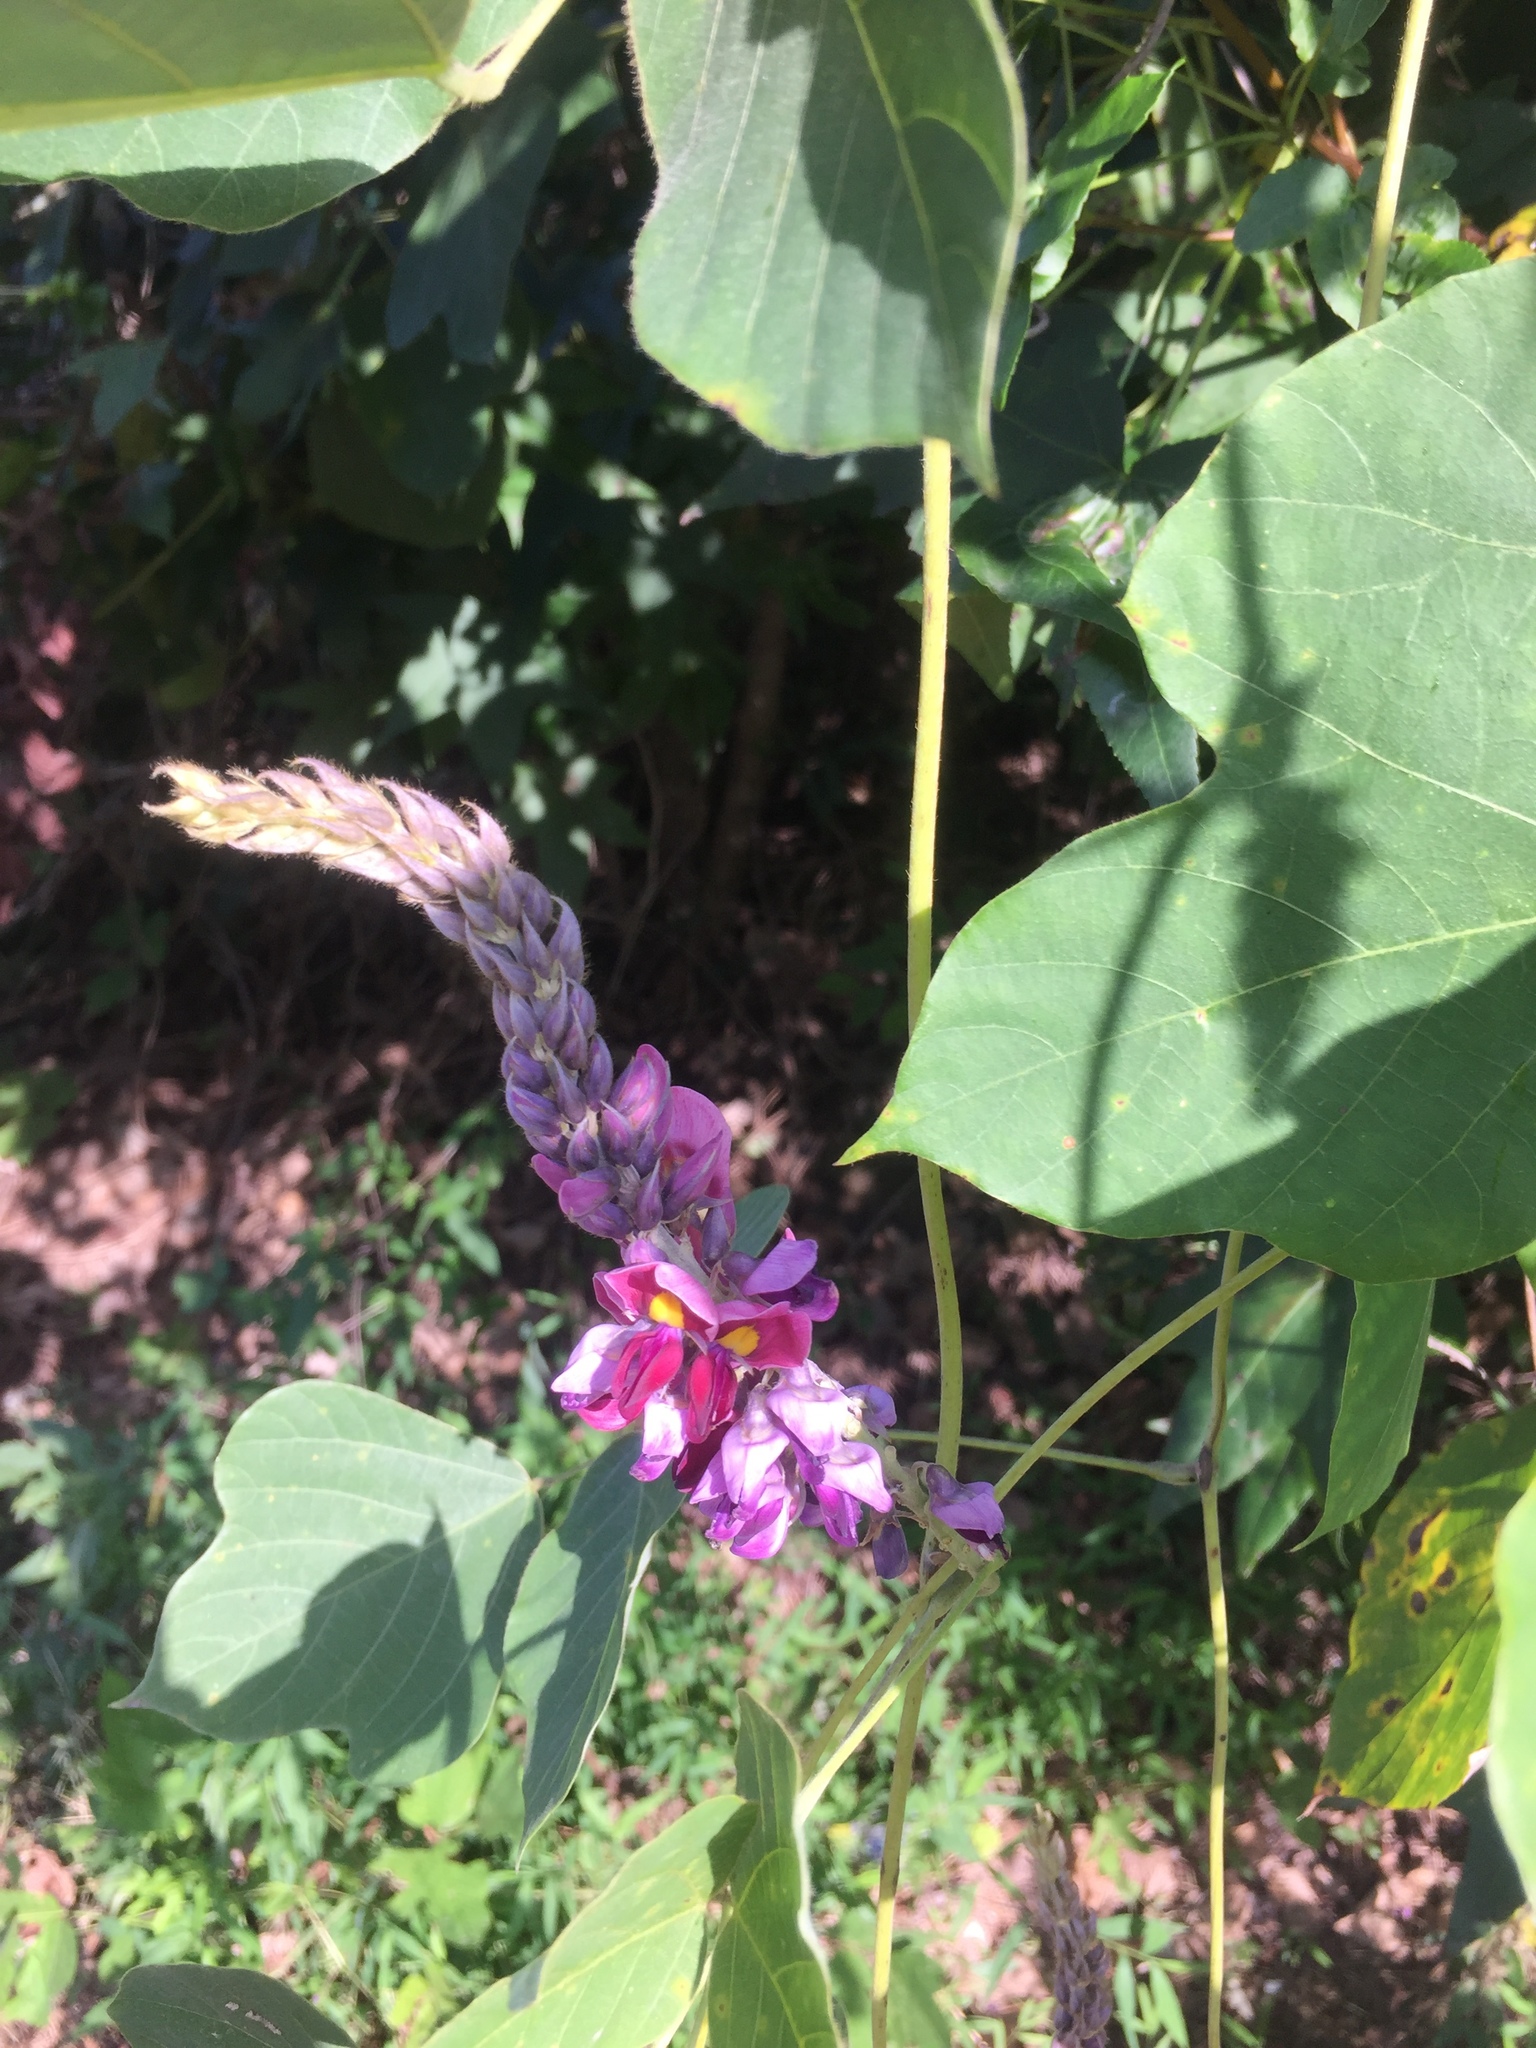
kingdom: Plantae
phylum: Tracheophyta
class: Magnoliopsida
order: Fabales
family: Fabaceae
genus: Pueraria
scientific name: Pueraria montana
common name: Kudzu
